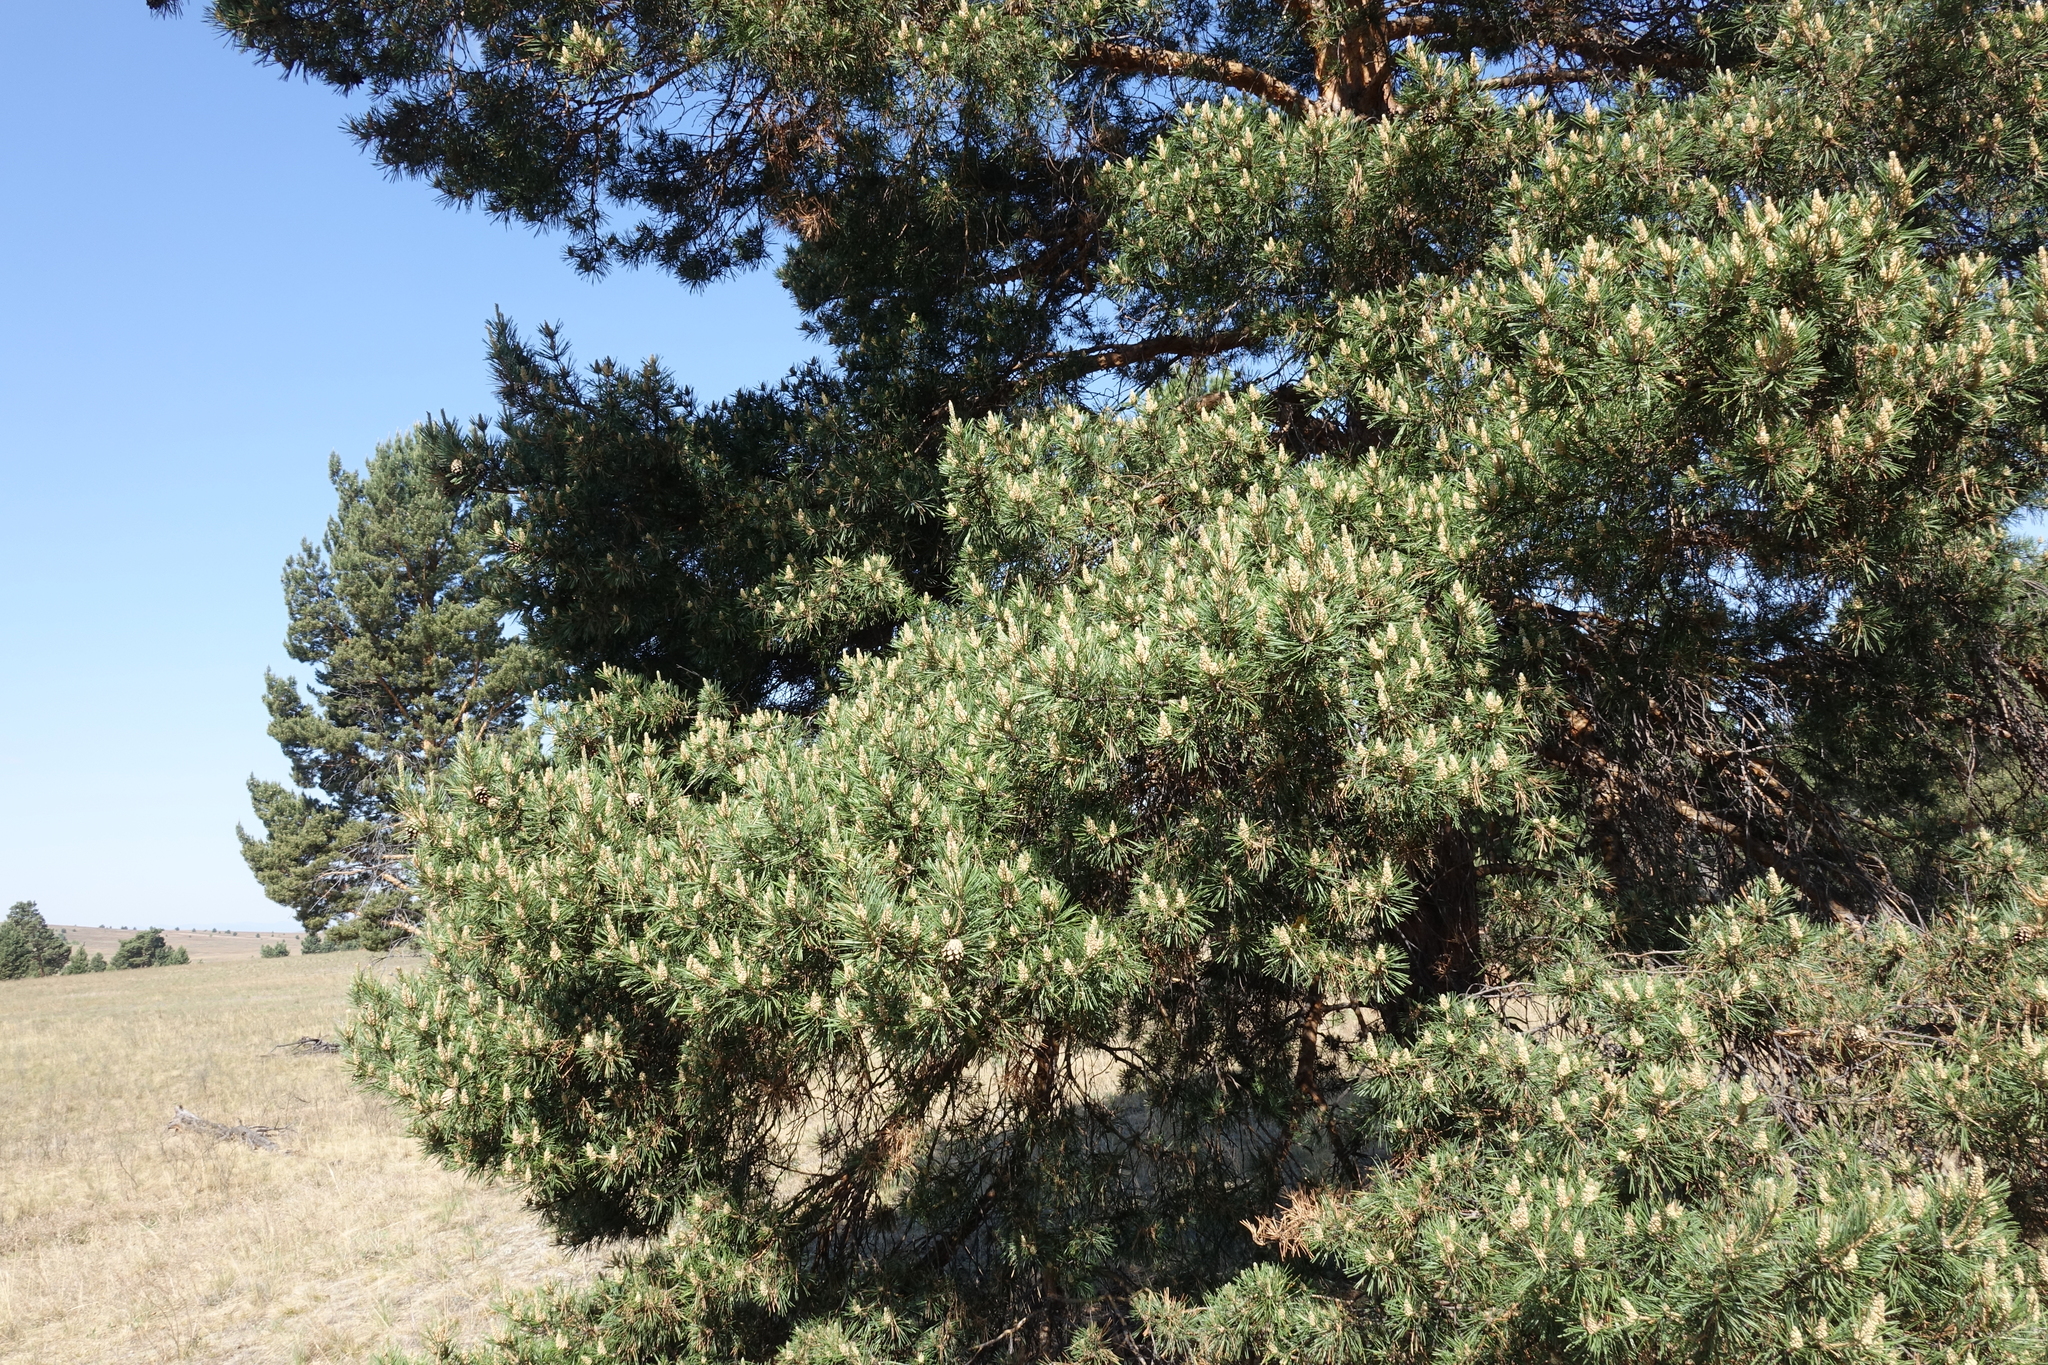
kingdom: Plantae
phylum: Tracheophyta
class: Pinopsida
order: Pinales
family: Pinaceae
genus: Pinus
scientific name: Pinus sylvestris
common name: Scots pine
